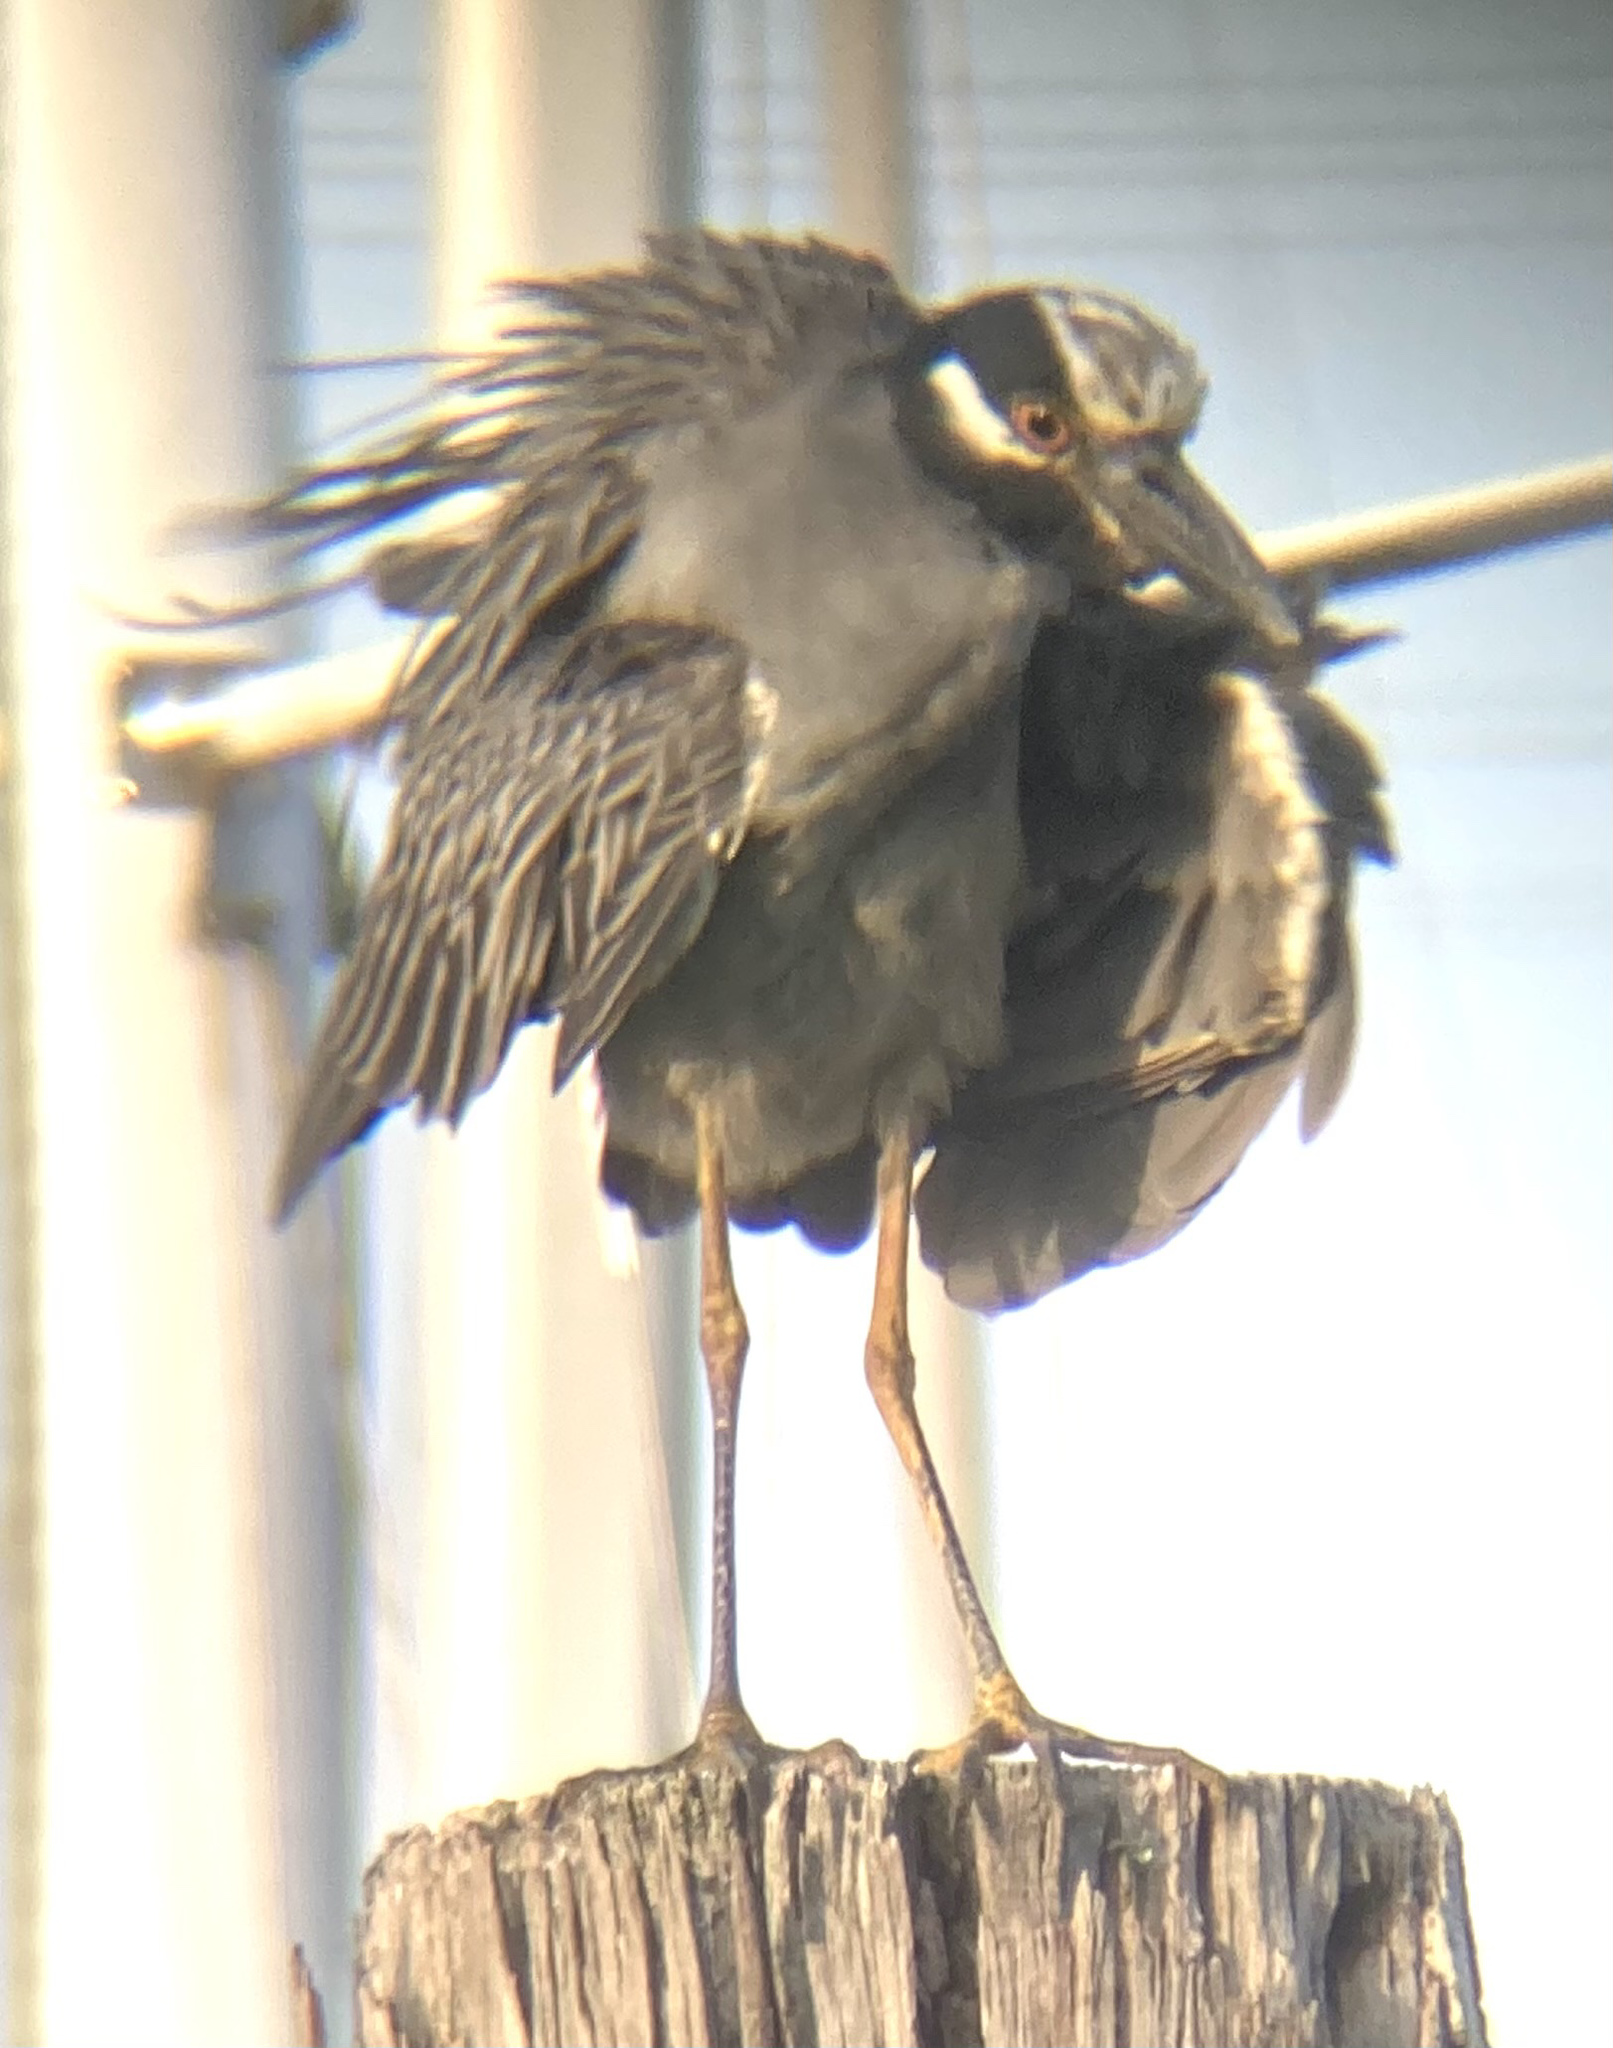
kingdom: Animalia
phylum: Chordata
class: Aves
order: Pelecaniformes
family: Ardeidae
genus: Nyctanassa
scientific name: Nyctanassa violacea
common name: Yellow-crowned night heron
